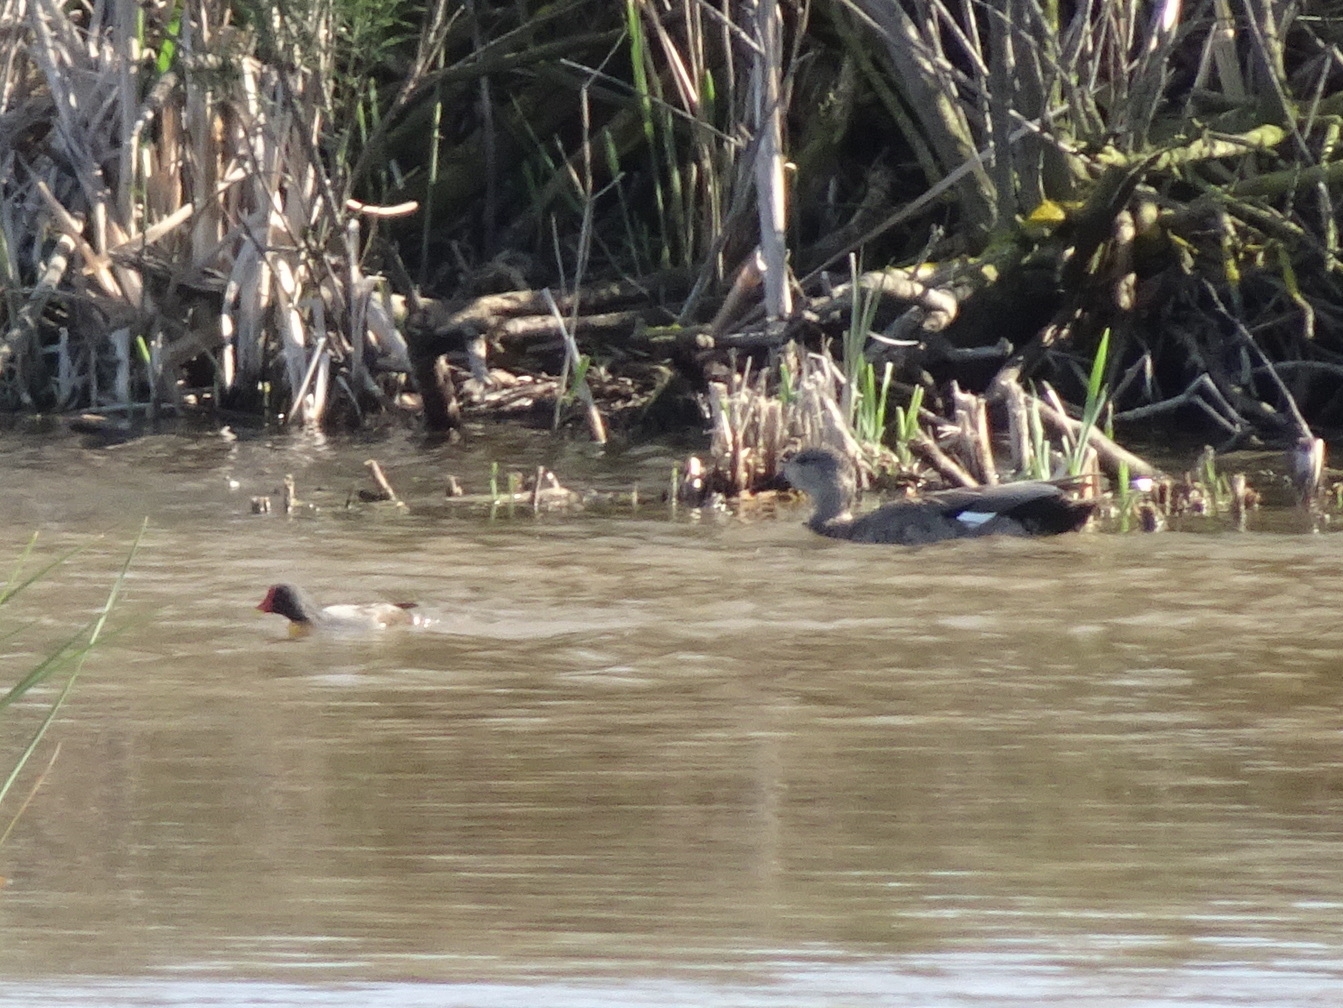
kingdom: Animalia
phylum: Chordata
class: Aves
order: Anseriformes
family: Anatidae
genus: Mareca
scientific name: Mareca strepera
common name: Gadwall
